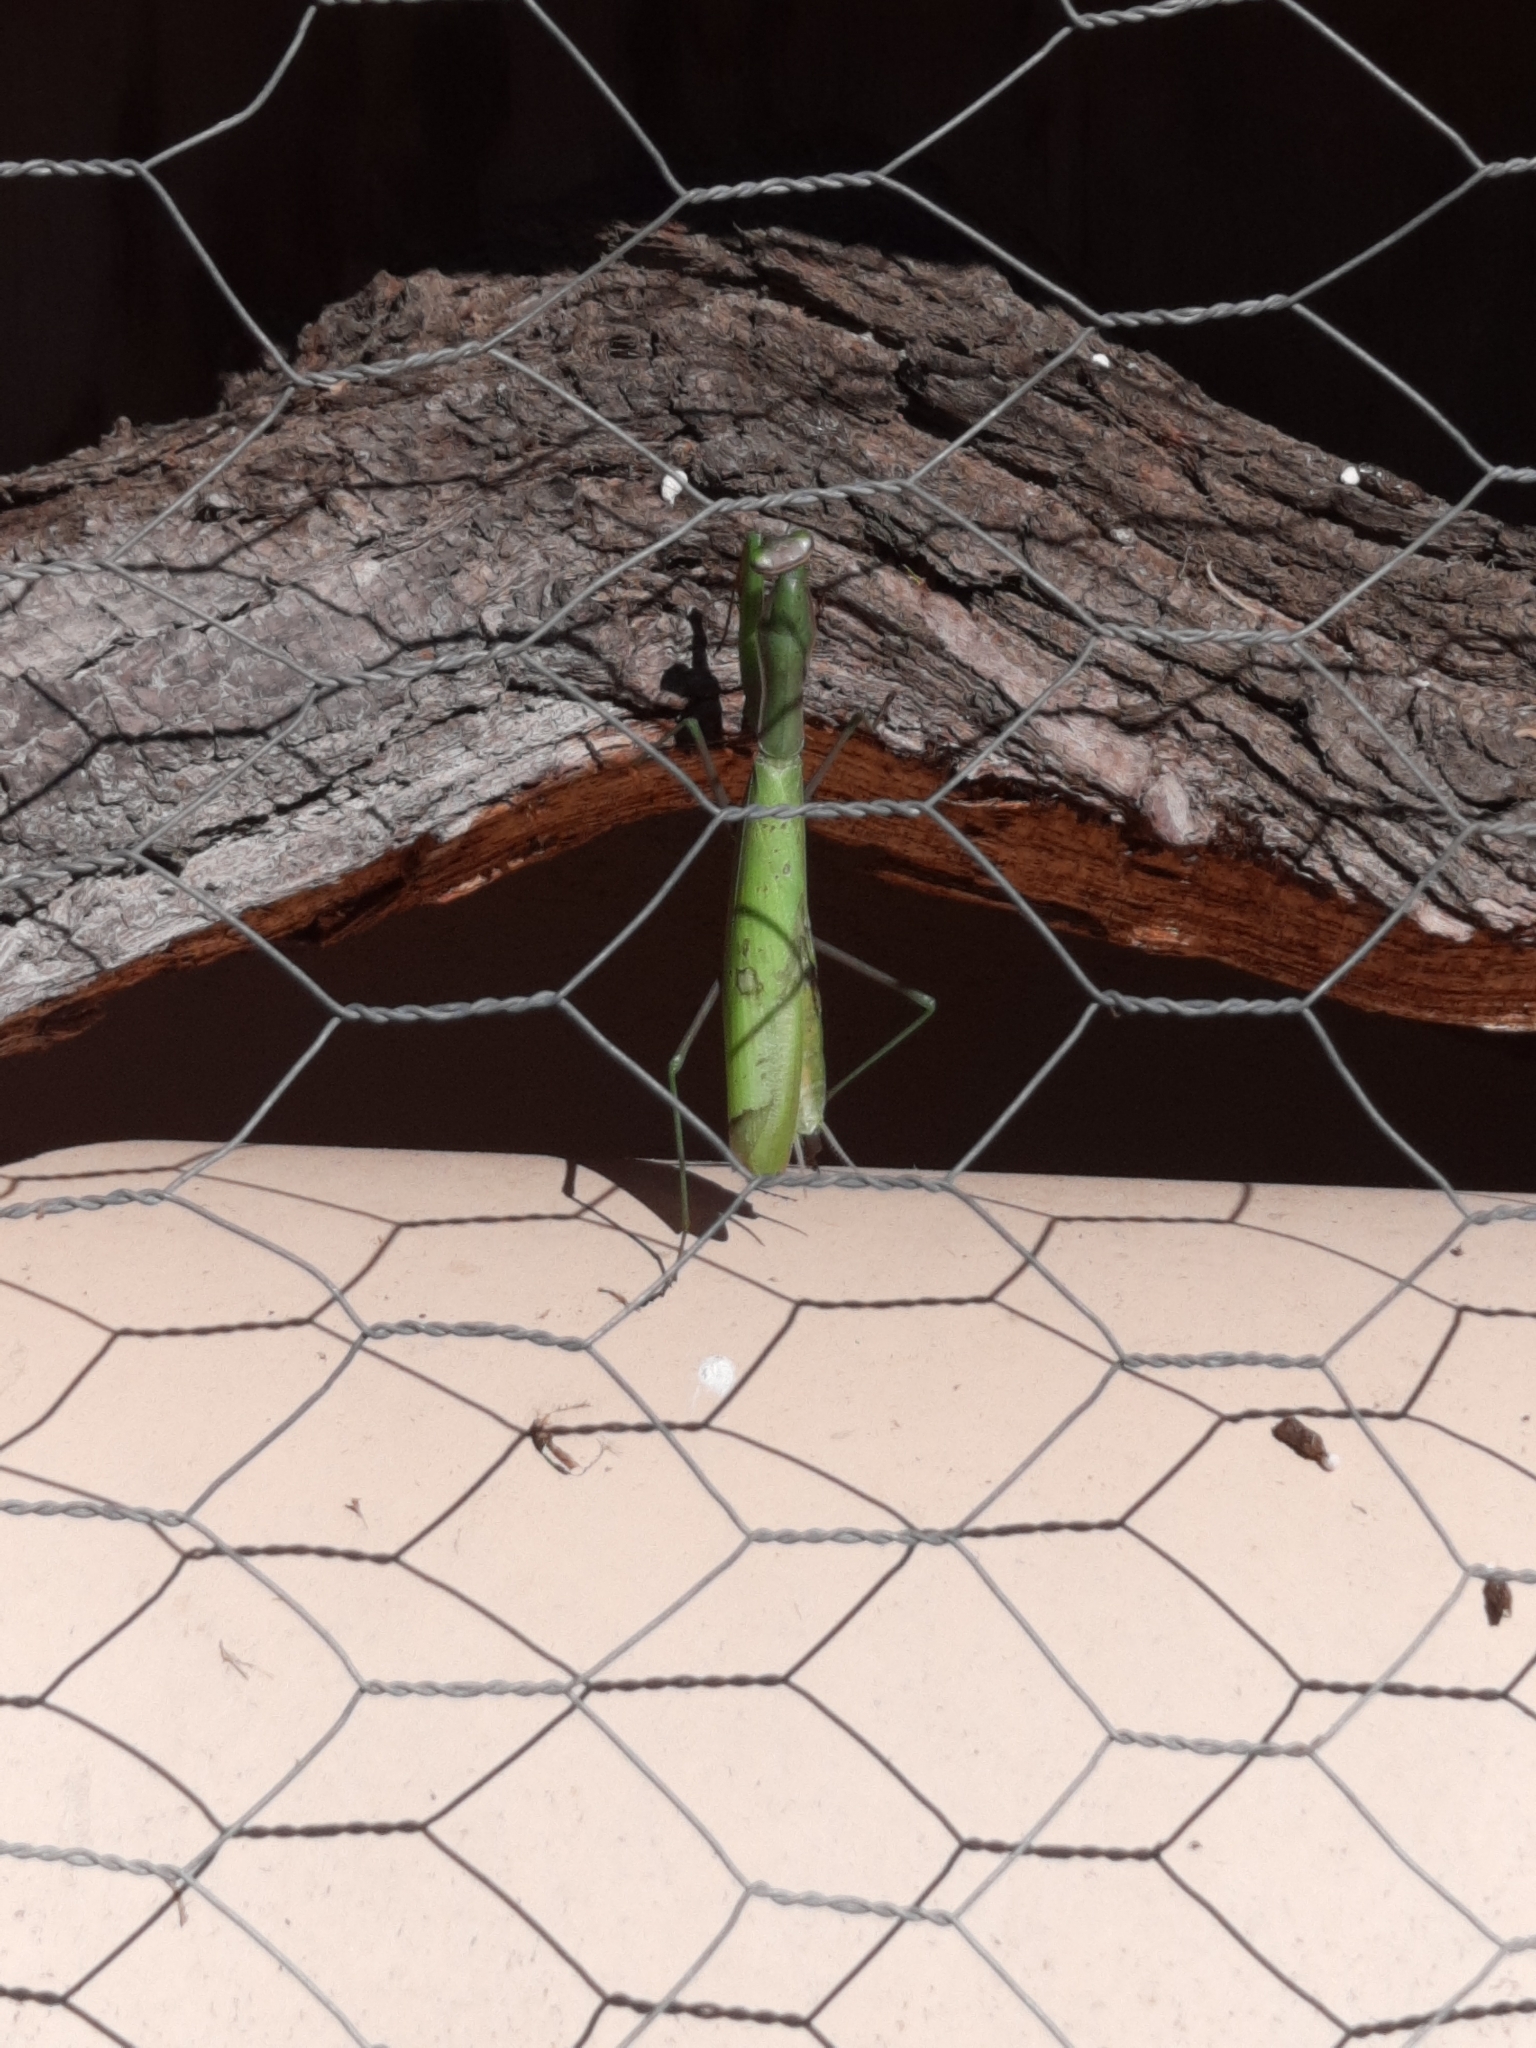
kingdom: Animalia
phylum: Arthropoda
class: Insecta
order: Mantodea
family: Mantidae
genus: Mantis
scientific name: Mantis religiosa
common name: Praying mantis
